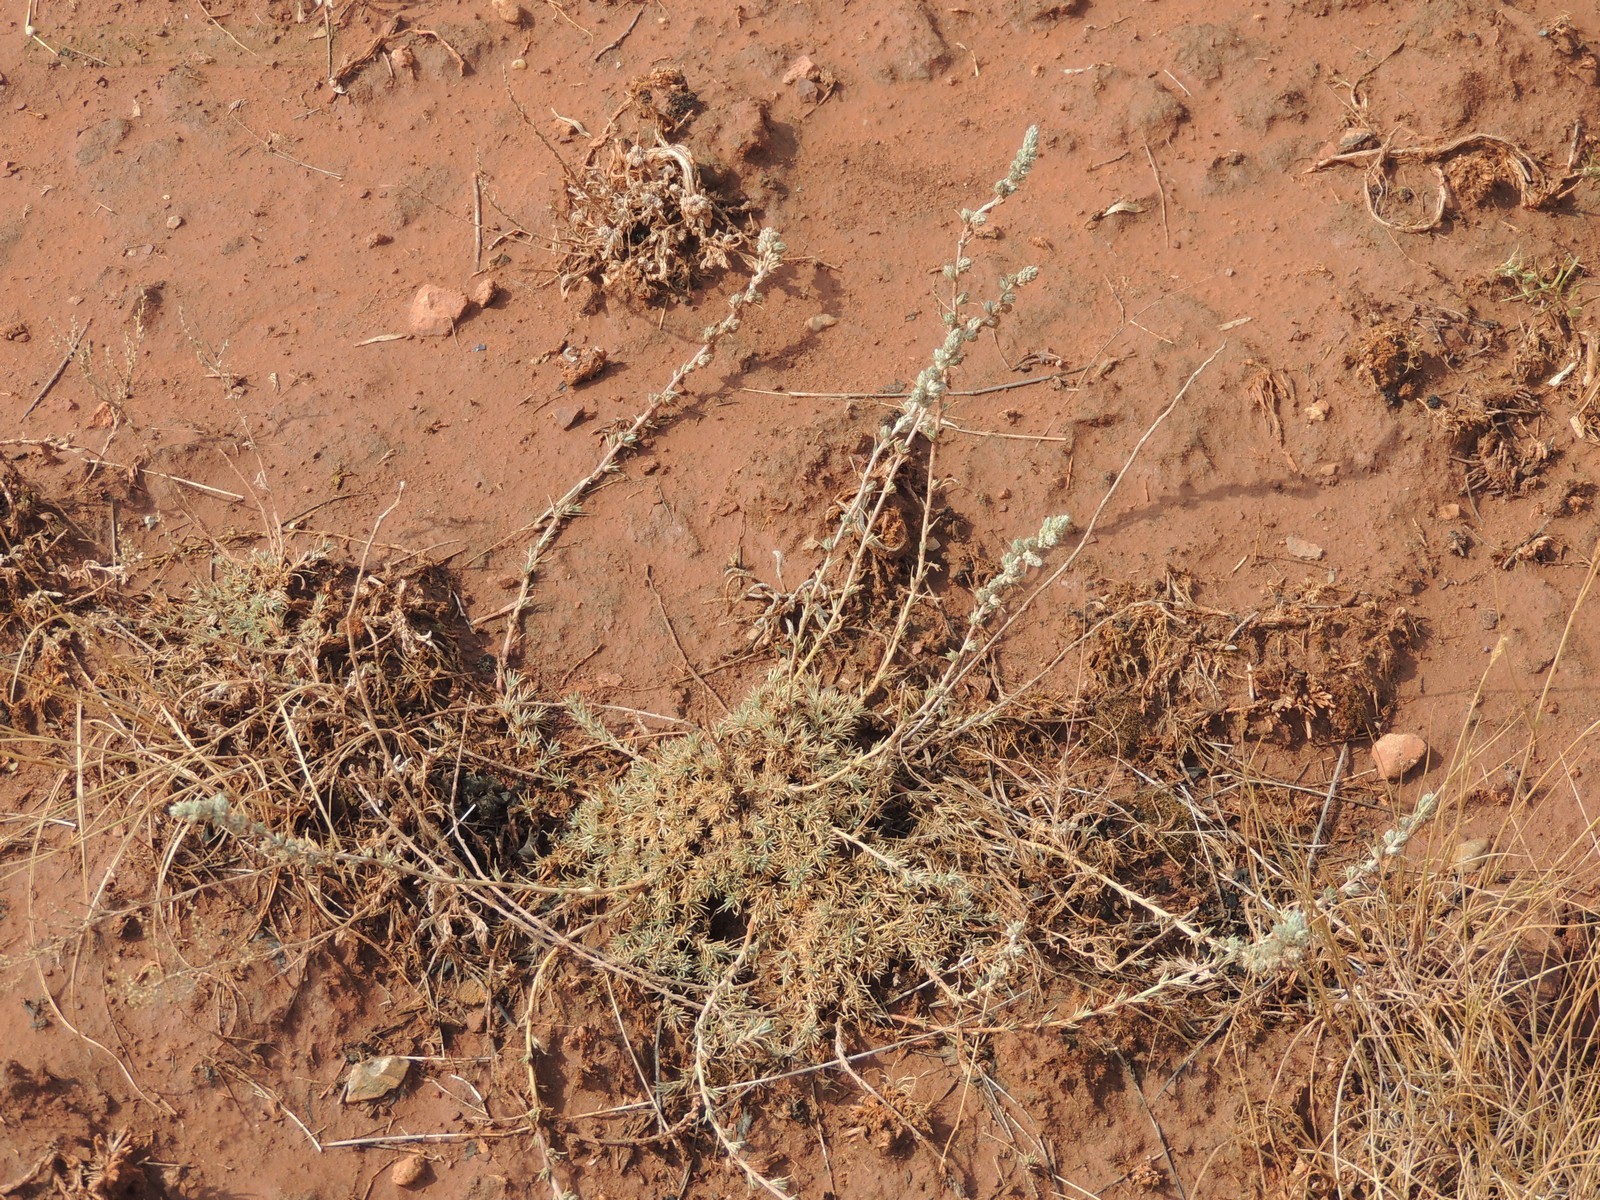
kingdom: Plantae
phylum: Tracheophyta
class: Magnoliopsida
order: Caryophyllales
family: Amaranthaceae
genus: Camphorosma
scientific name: Camphorosma monspeliaca
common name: Camphorfume
